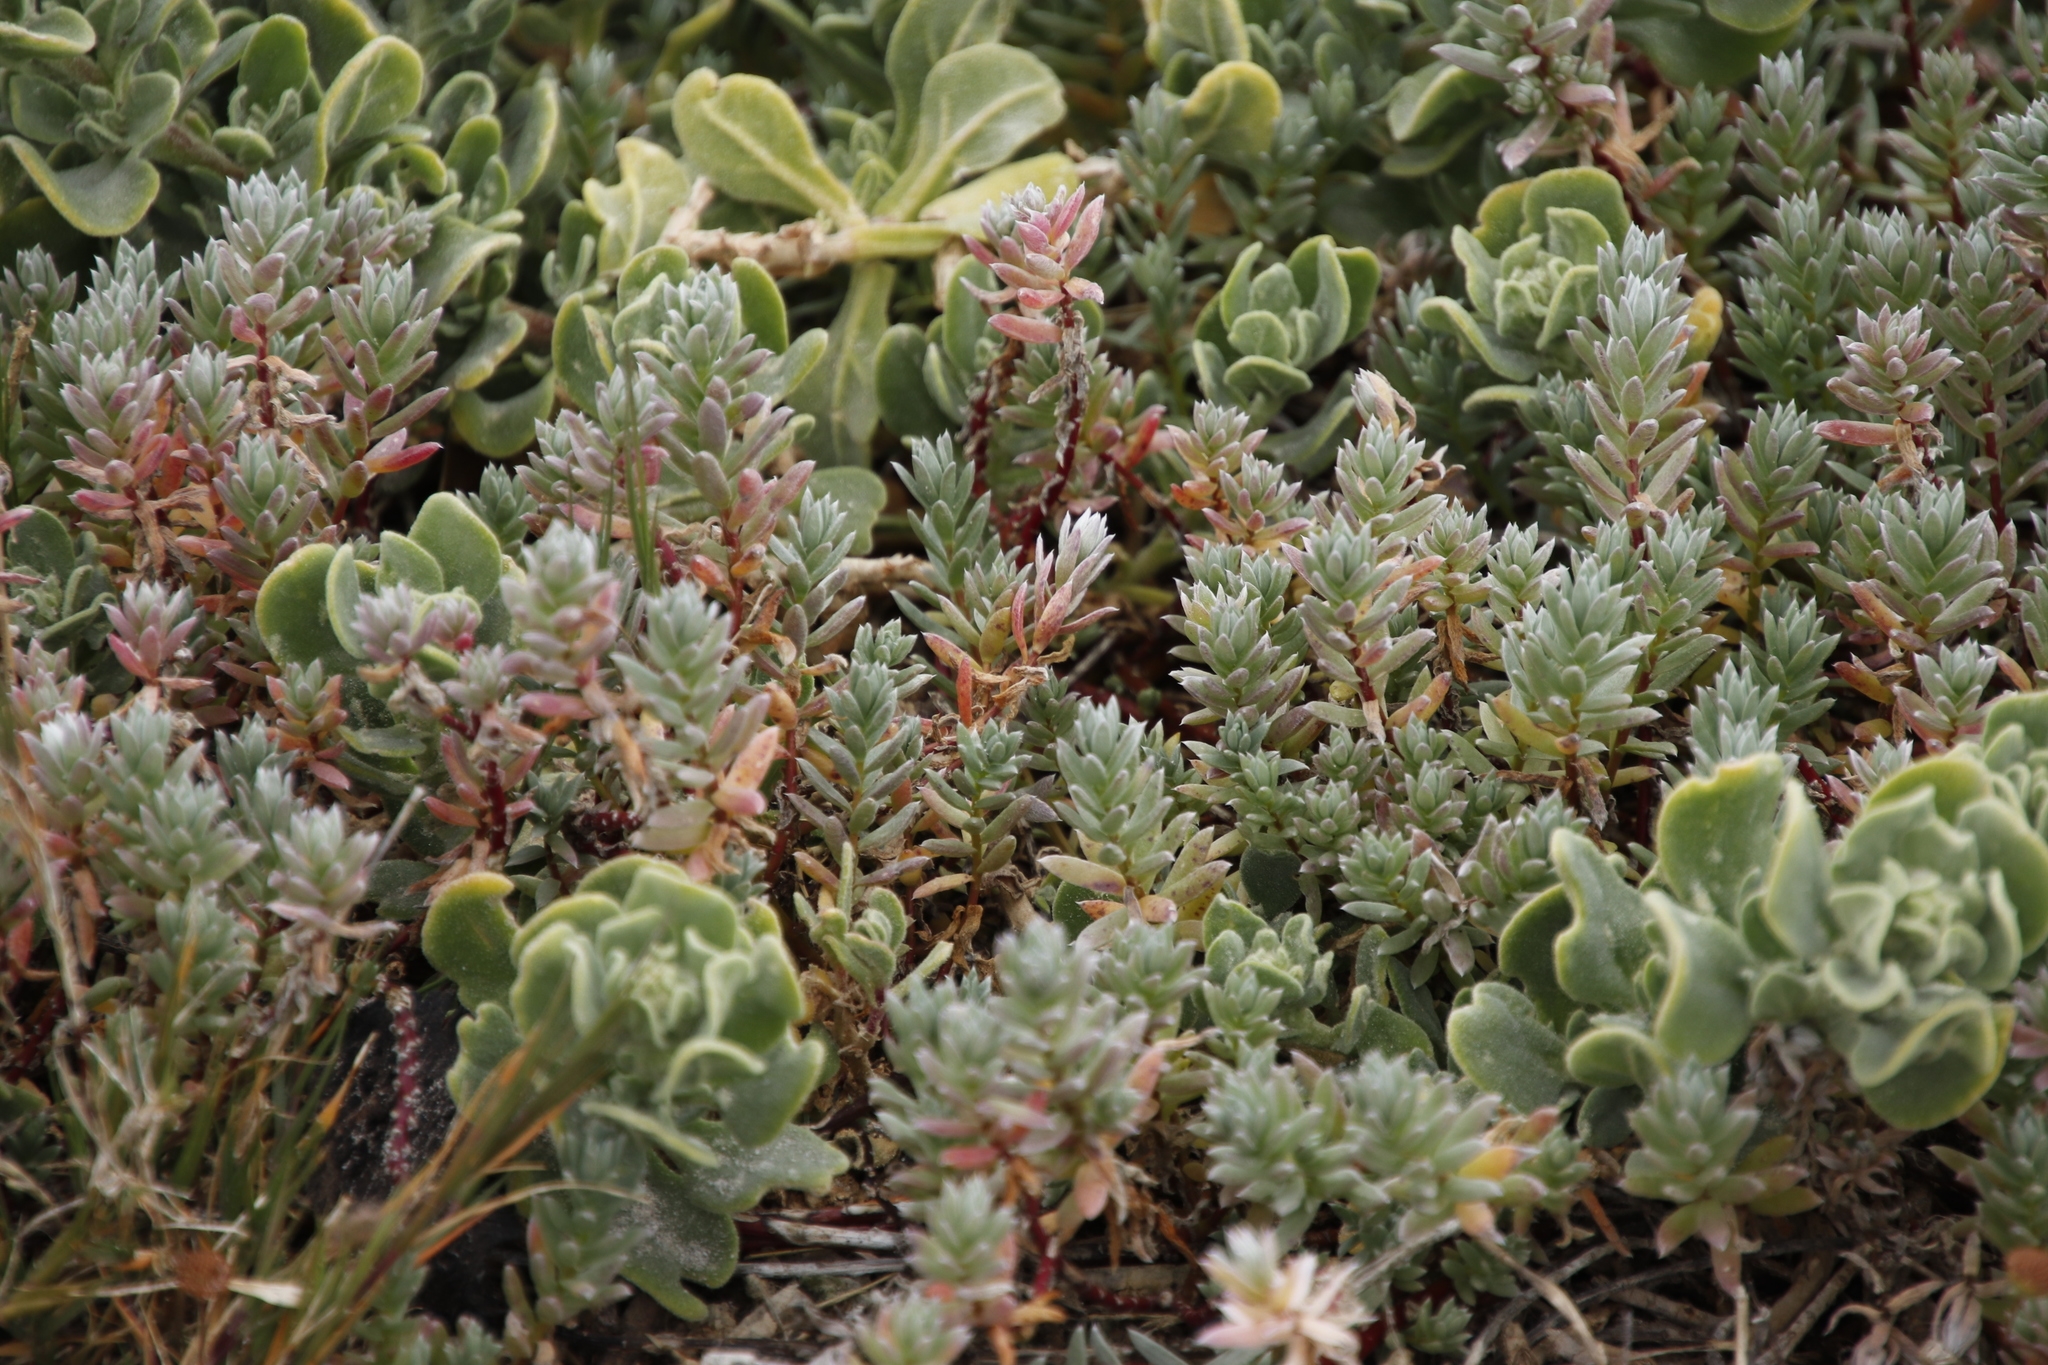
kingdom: Plantae
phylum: Tracheophyta
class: Magnoliopsida
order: Caryophyllales
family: Amaranthaceae
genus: Chenolea
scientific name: Chenolea diffusa
